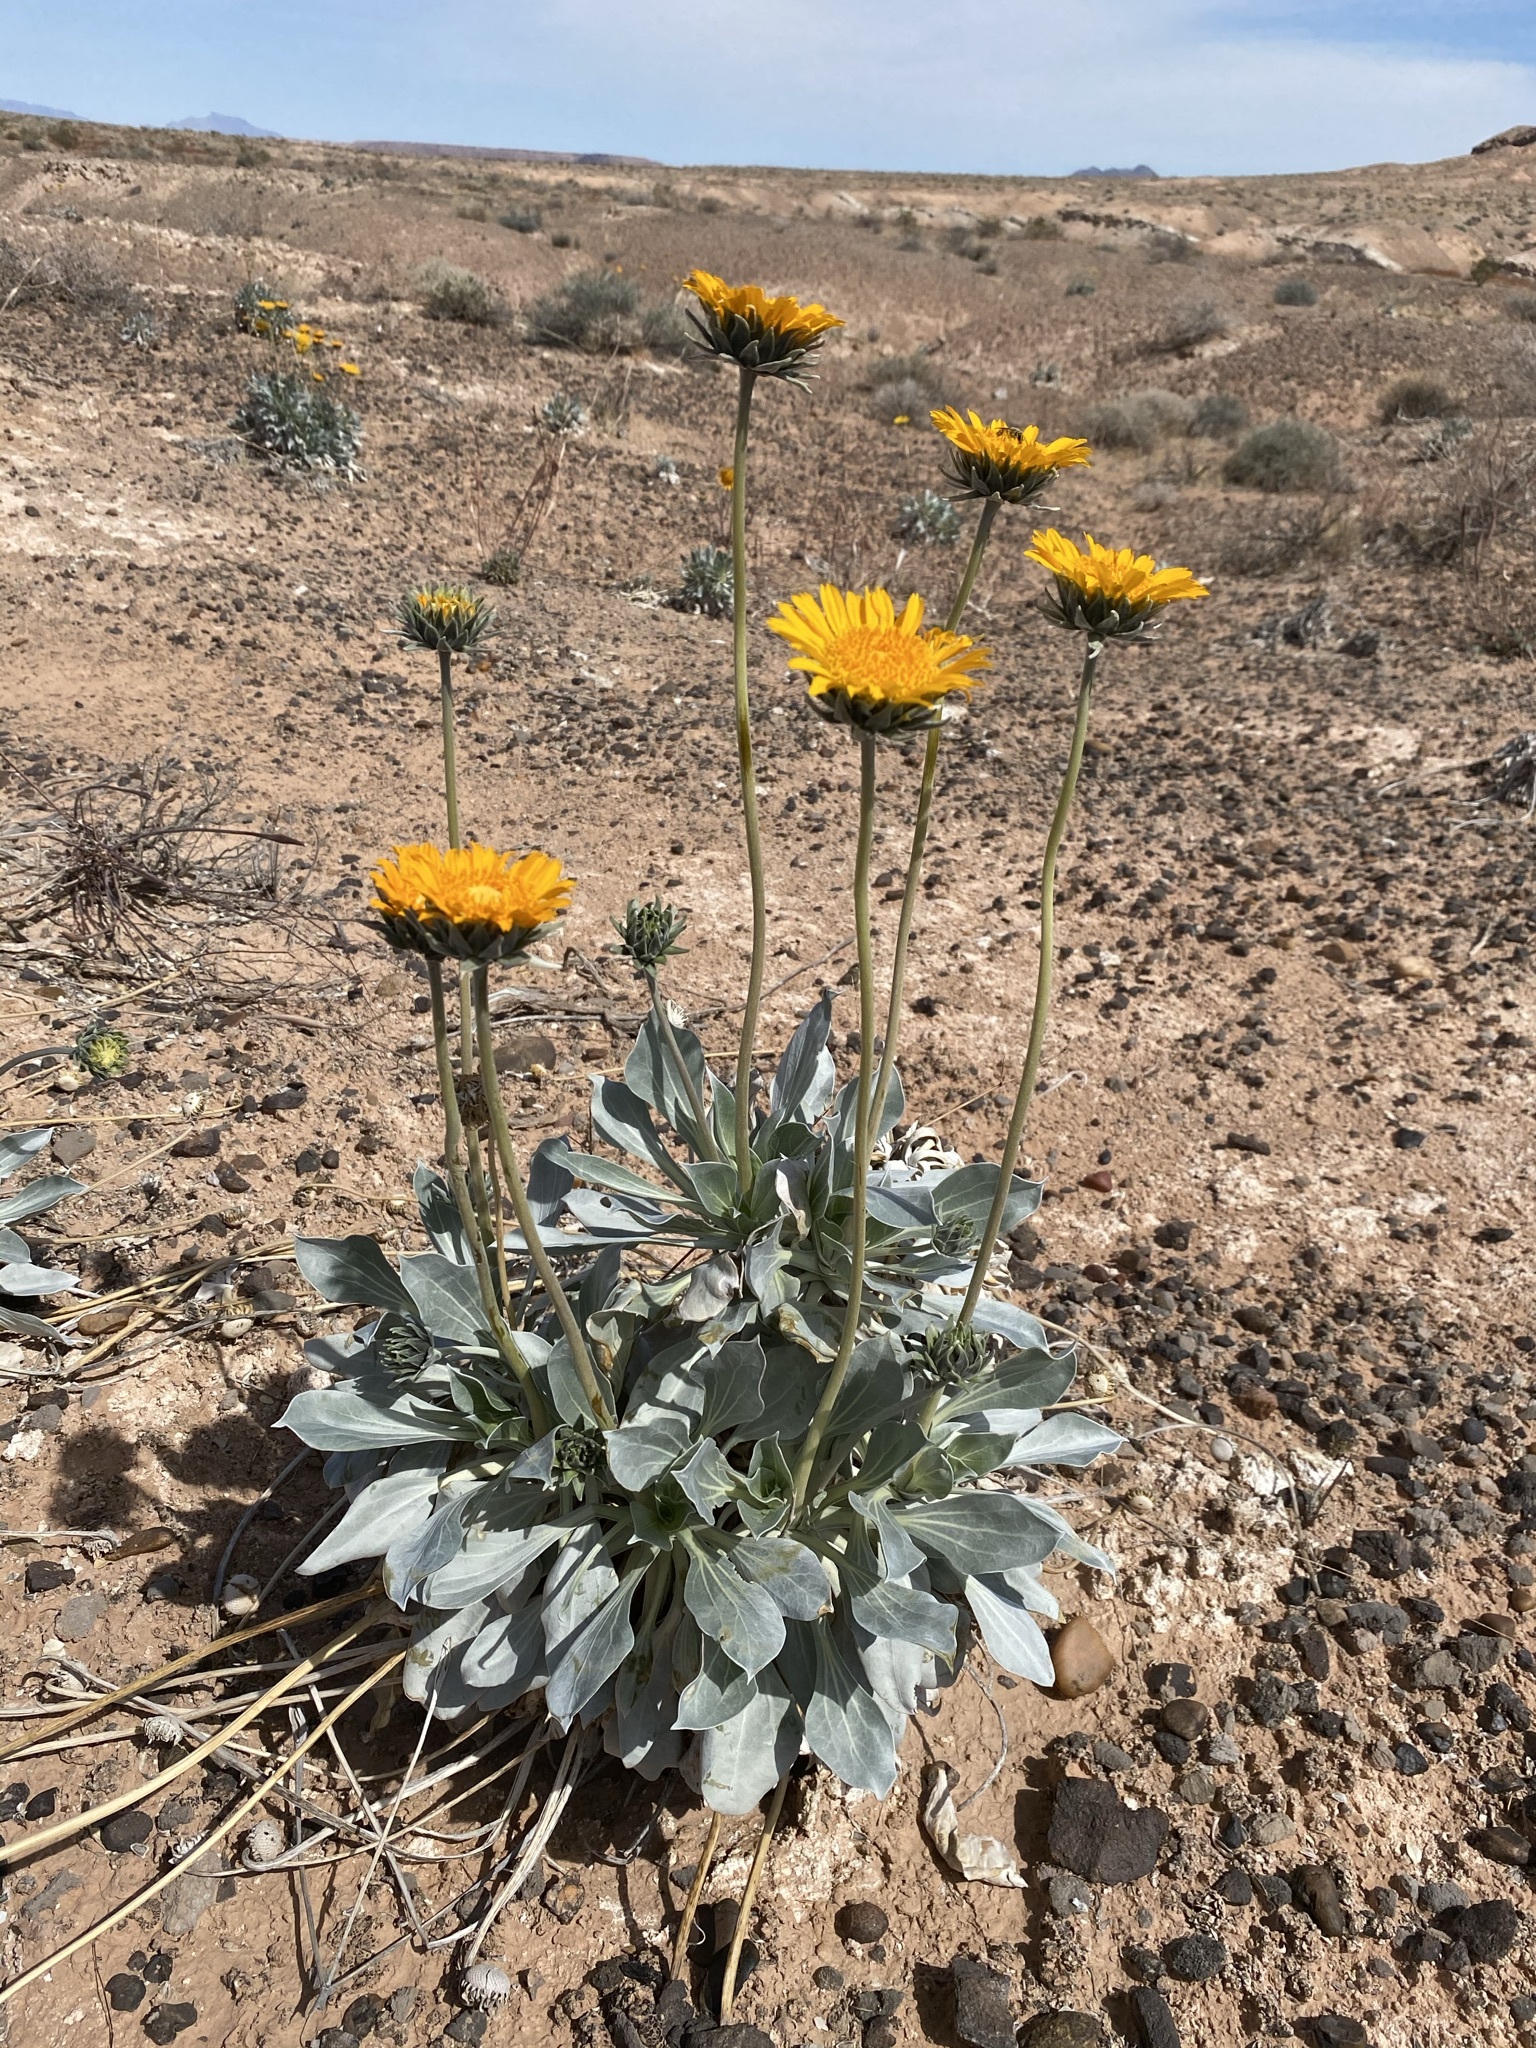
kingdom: Plantae
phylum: Tracheophyta
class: Magnoliopsida
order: Asterales
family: Asteraceae
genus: Enceliopsis
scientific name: Enceliopsis argophylla
